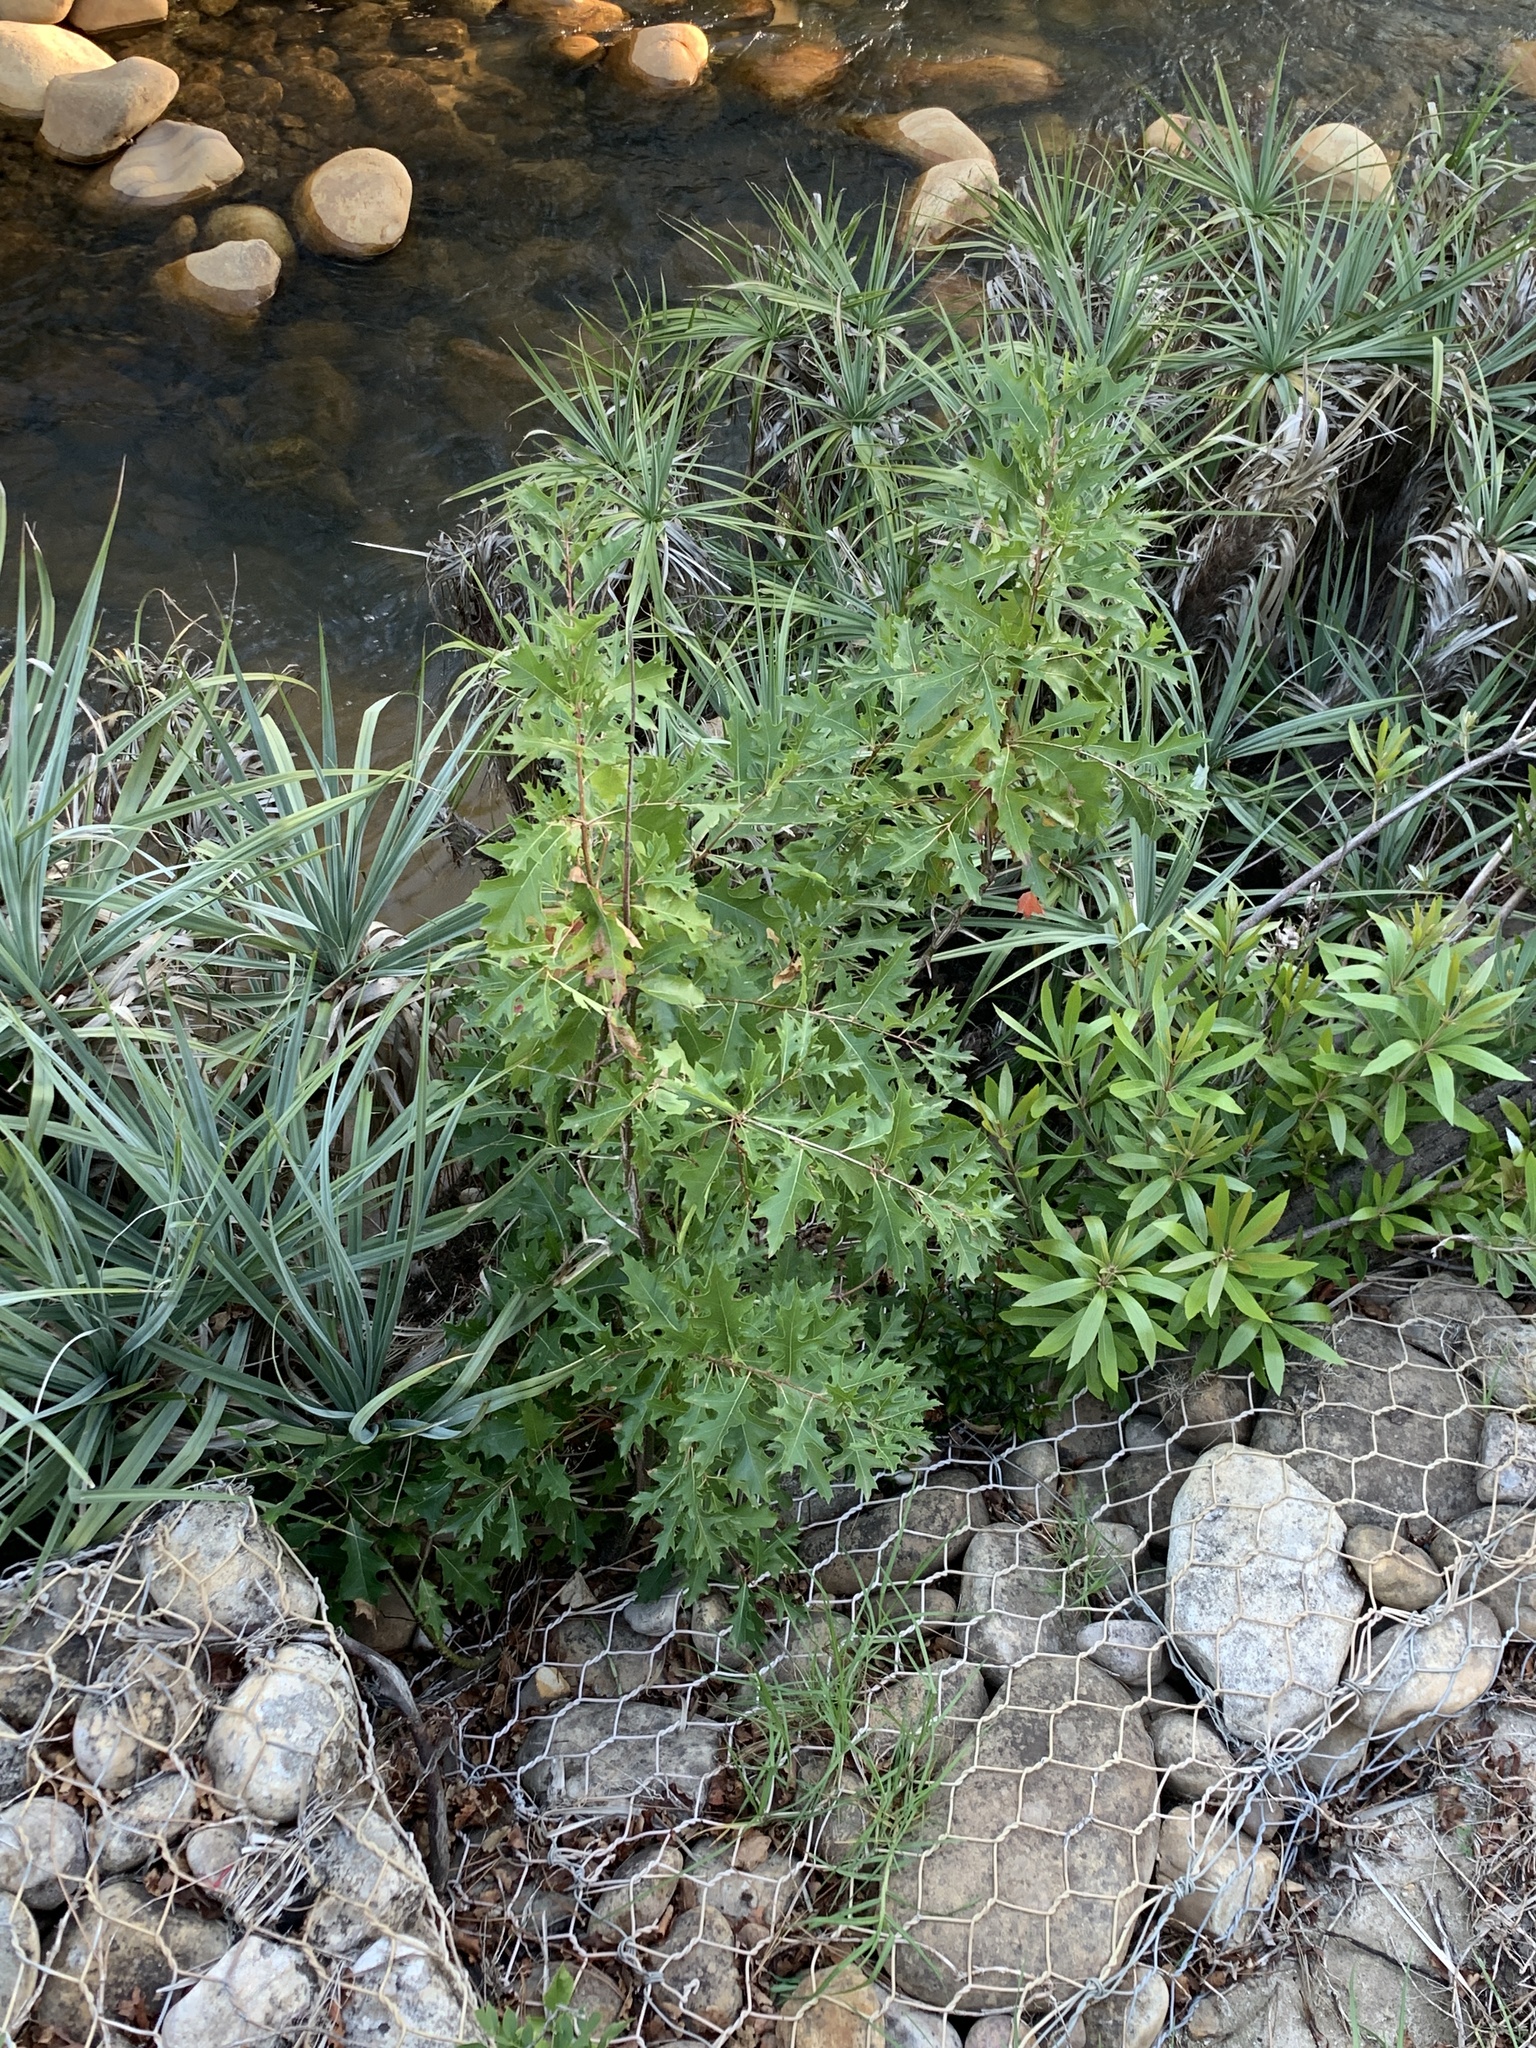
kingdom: Plantae
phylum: Tracheophyta
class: Magnoliopsida
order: Fagales
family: Fagaceae
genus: Quercus
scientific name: Quercus palustris
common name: Pin oak
